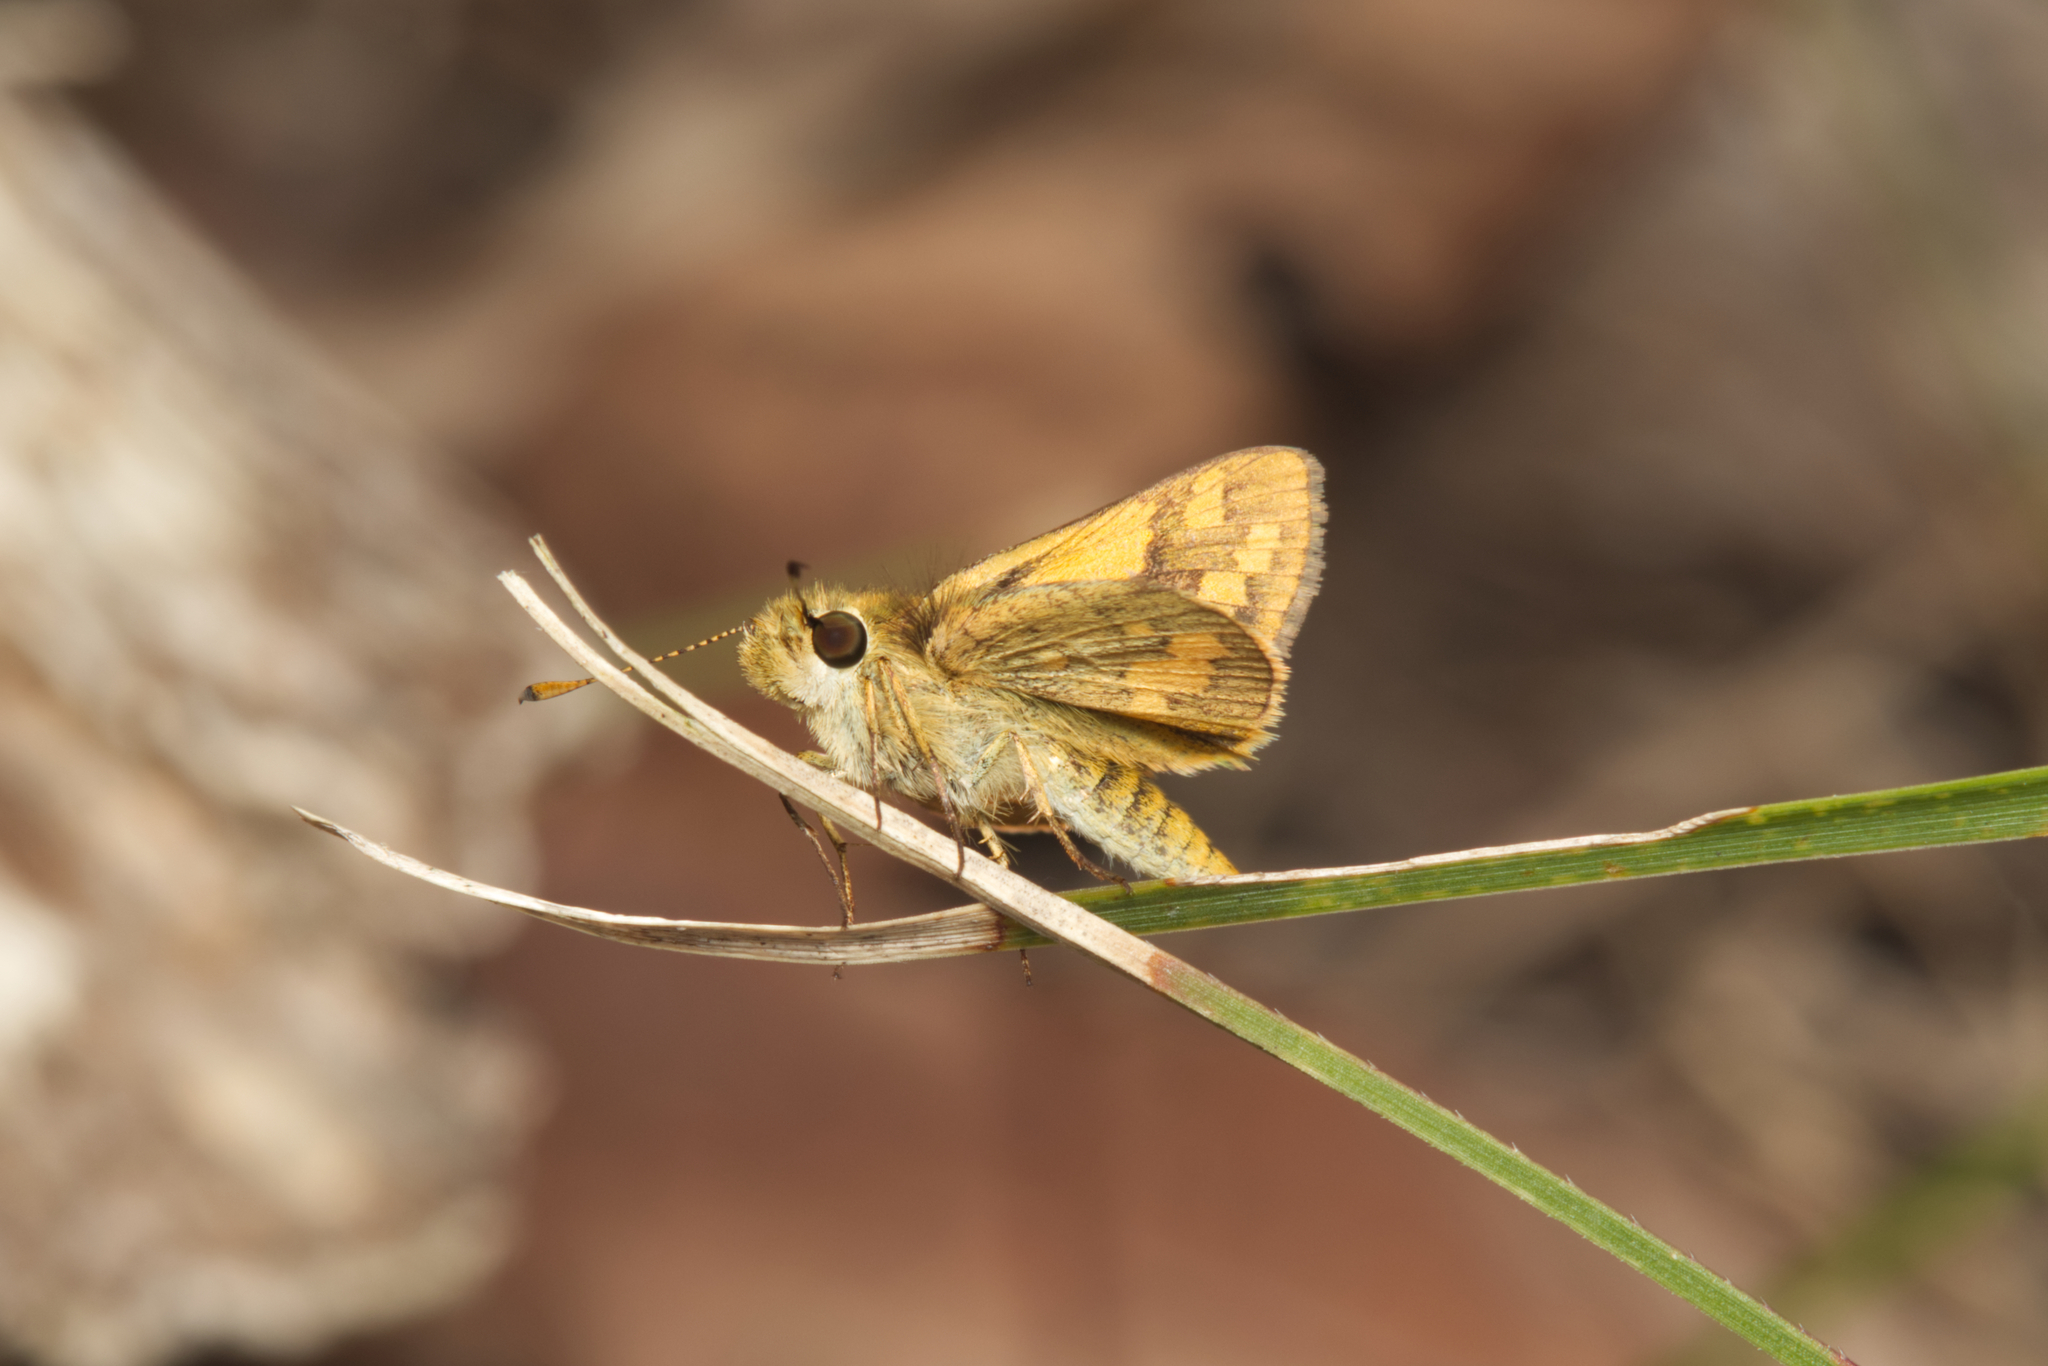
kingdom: Animalia
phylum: Arthropoda
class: Insecta
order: Lepidoptera
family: Hesperiidae
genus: Ocybadistes
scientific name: Ocybadistes walkeri
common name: Yellow-banded dart
